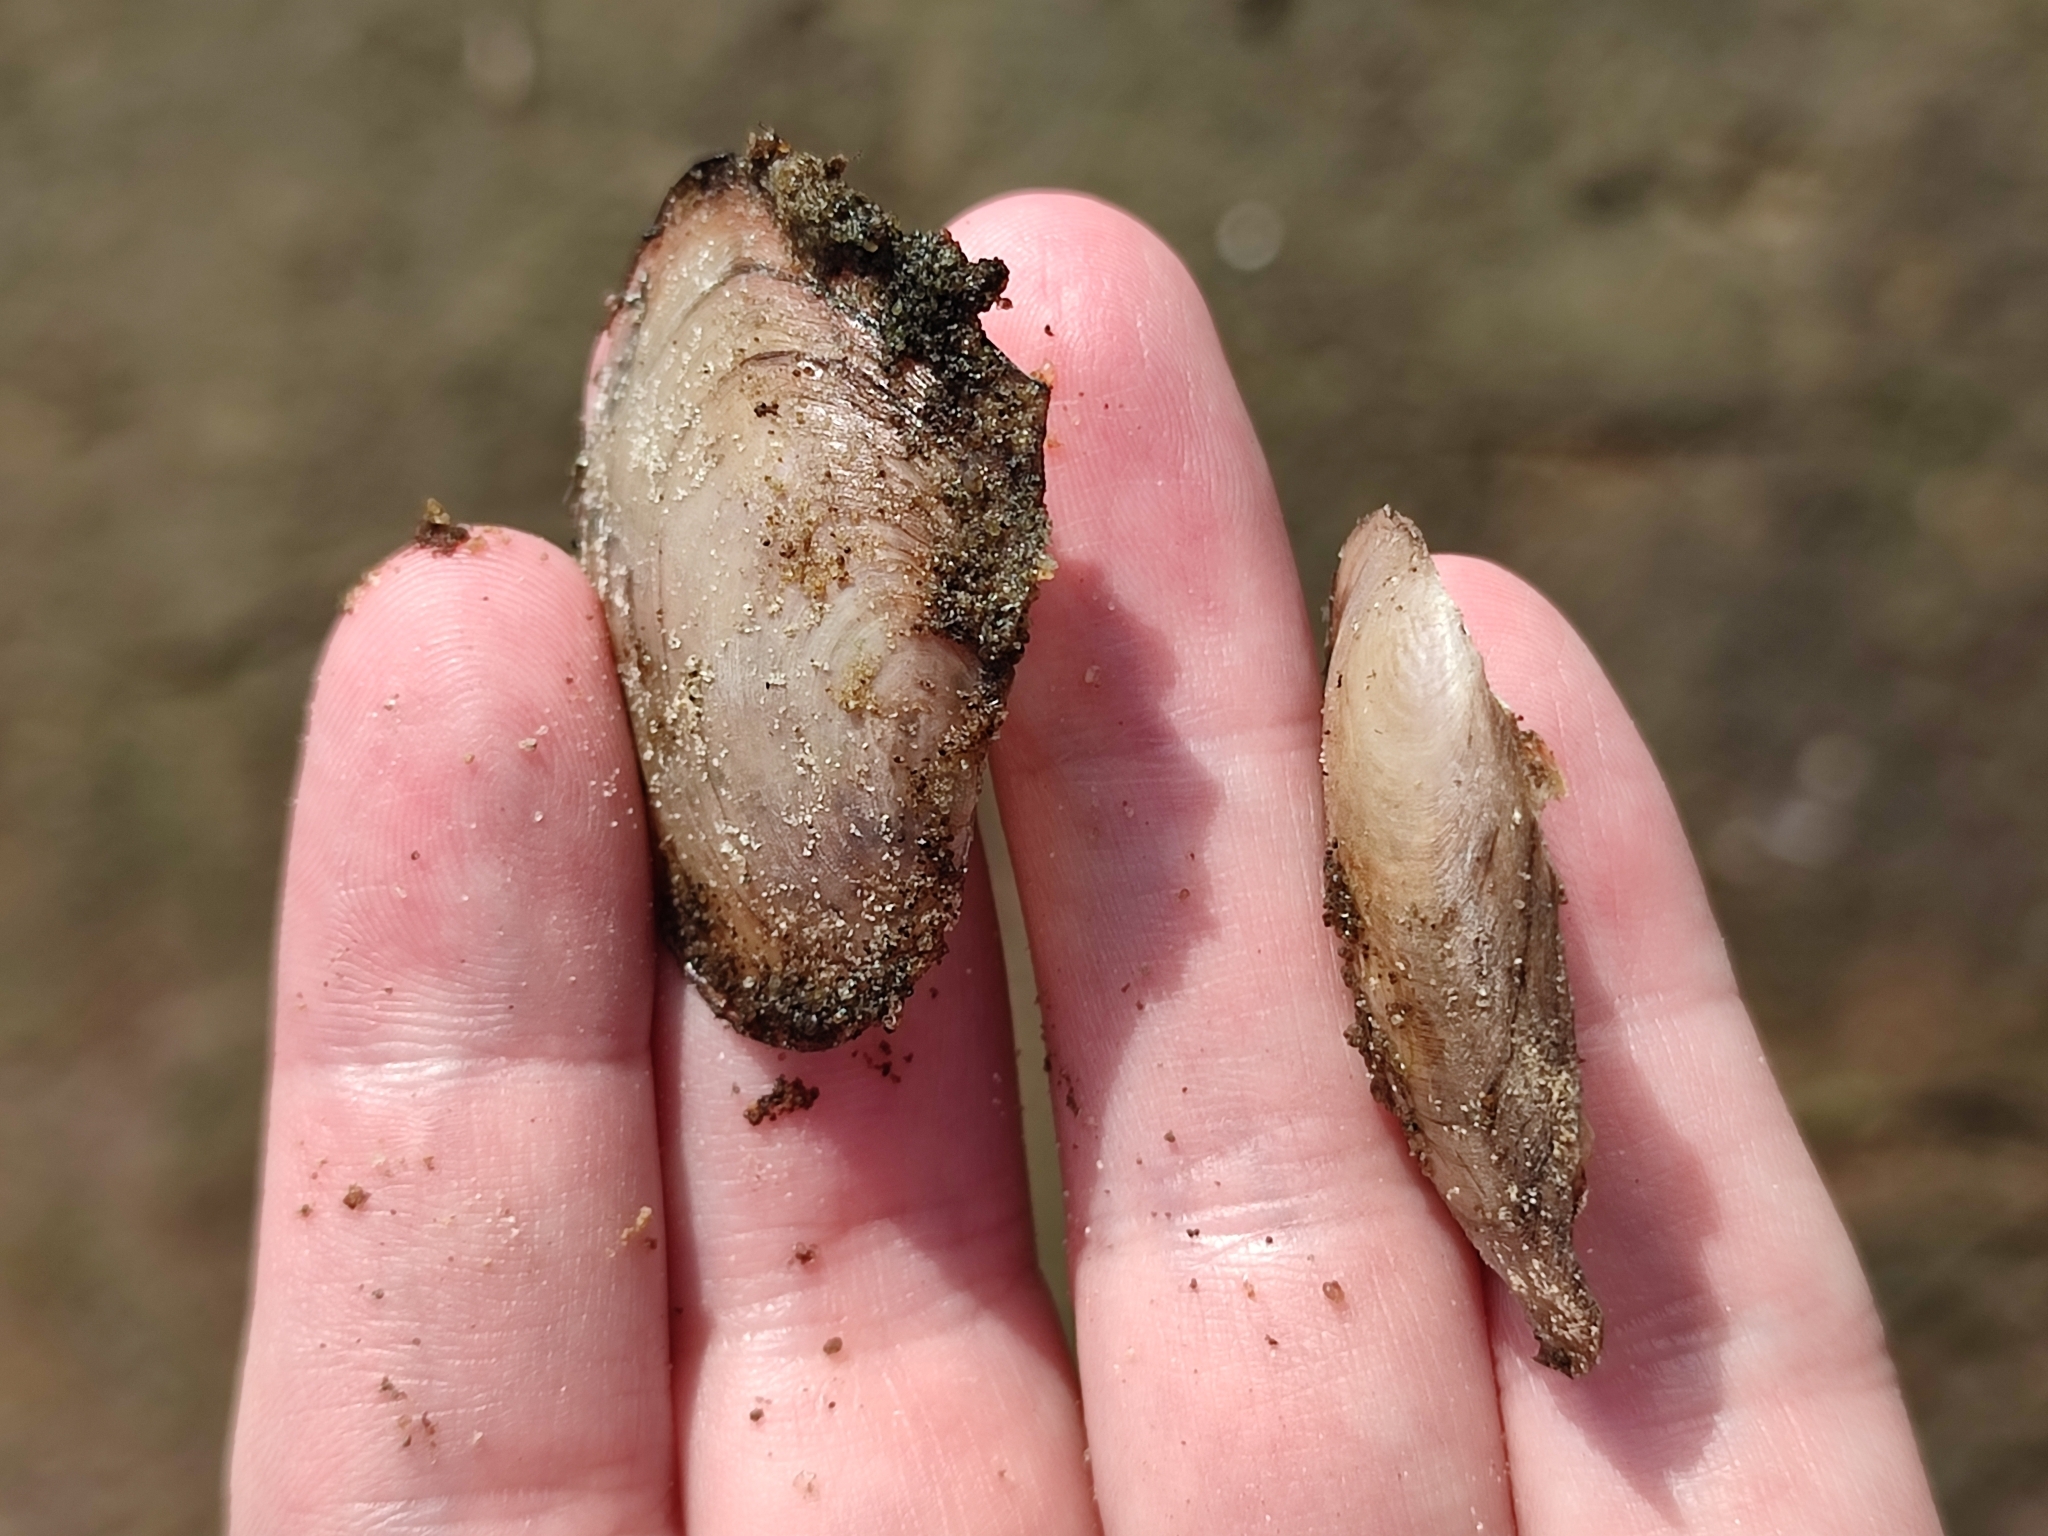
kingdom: Animalia
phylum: Mollusca
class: Bivalvia
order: Unionida
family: Unionidae
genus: Anodonta
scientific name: Anodonta anatina
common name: Duck mussel
